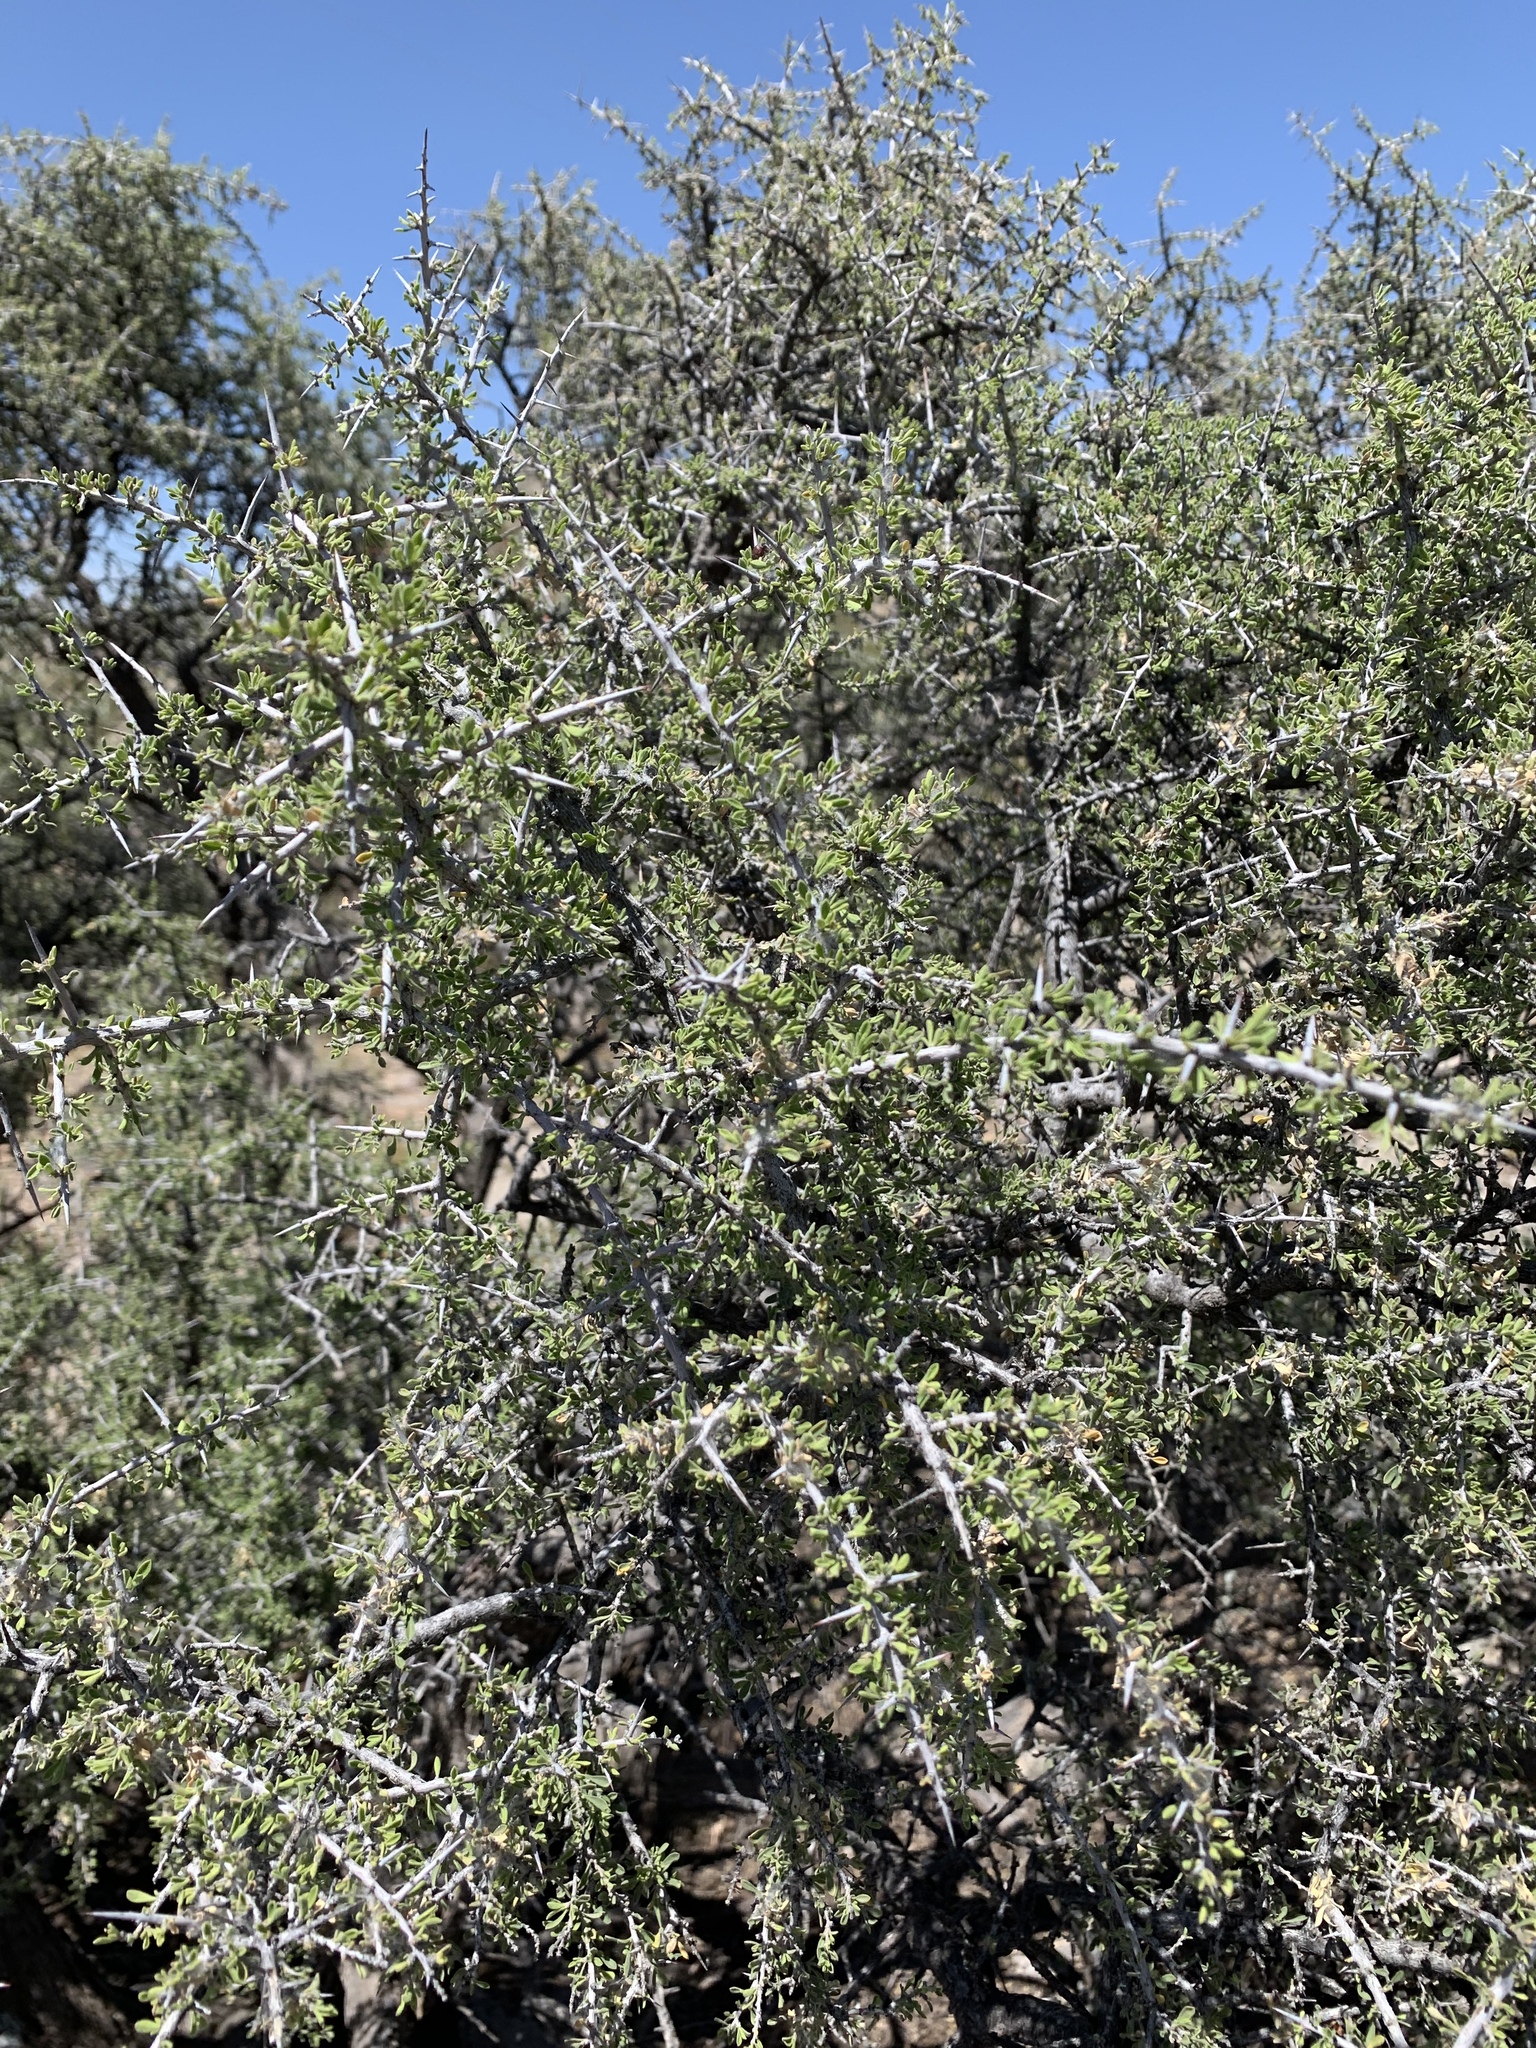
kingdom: Plantae
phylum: Tracheophyta
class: Magnoliopsida
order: Rosales
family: Rhamnaceae
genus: Condalia
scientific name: Condalia warnockii
